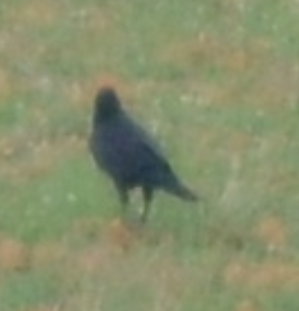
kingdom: Animalia
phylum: Chordata
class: Aves
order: Passeriformes
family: Corvidae
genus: Corvus
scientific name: Corvus corax
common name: Common raven
